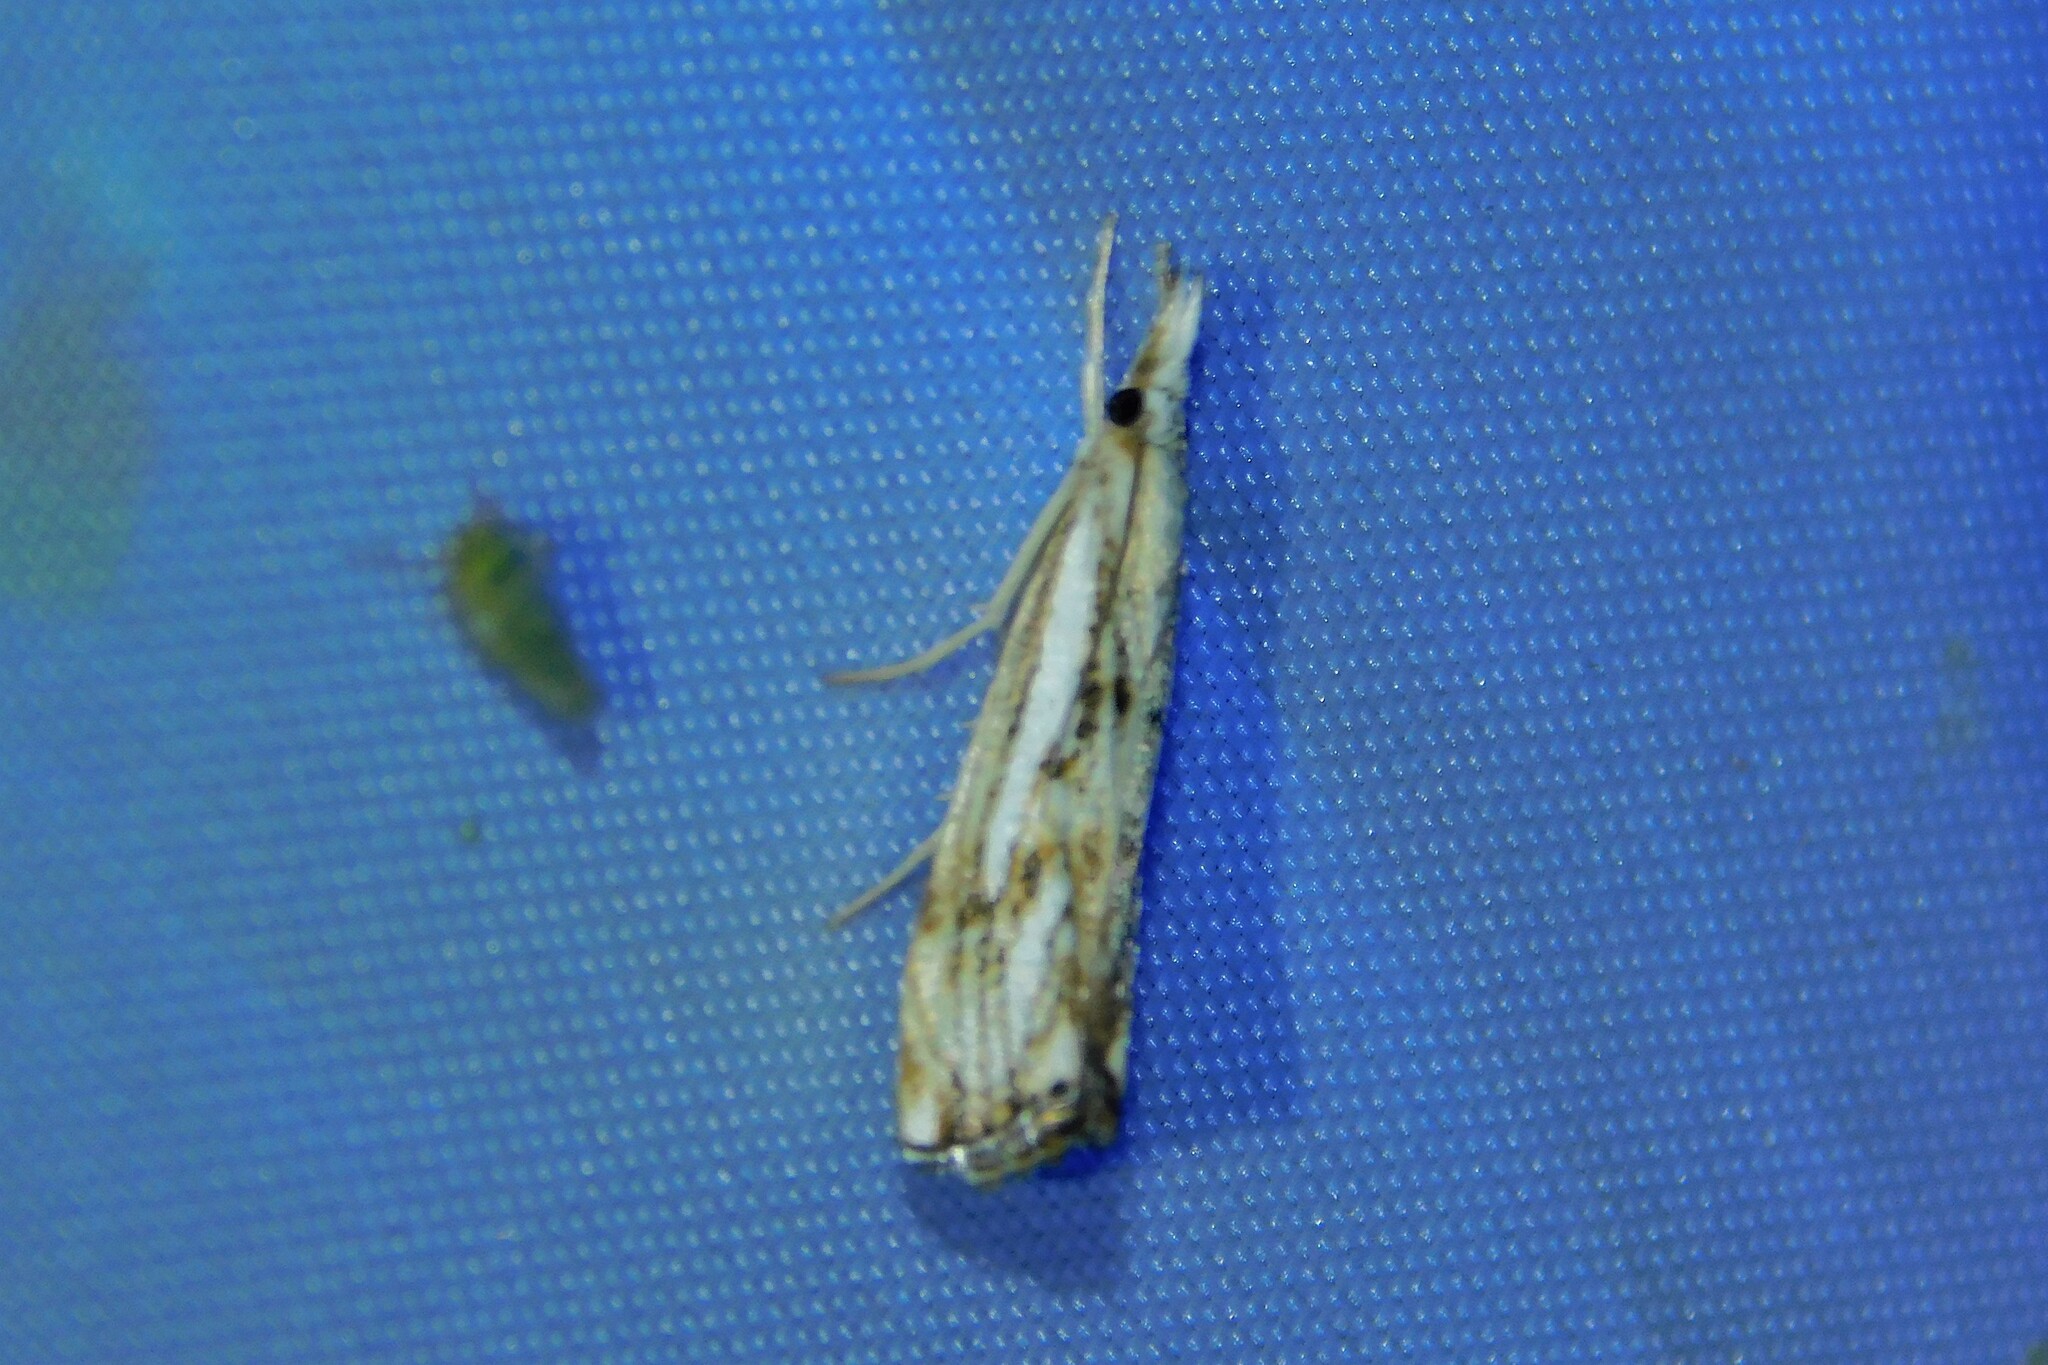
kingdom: Animalia
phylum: Arthropoda
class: Insecta
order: Lepidoptera
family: Crambidae
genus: Catoptria
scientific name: Catoptria falsella
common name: Chequered grass-veneer
